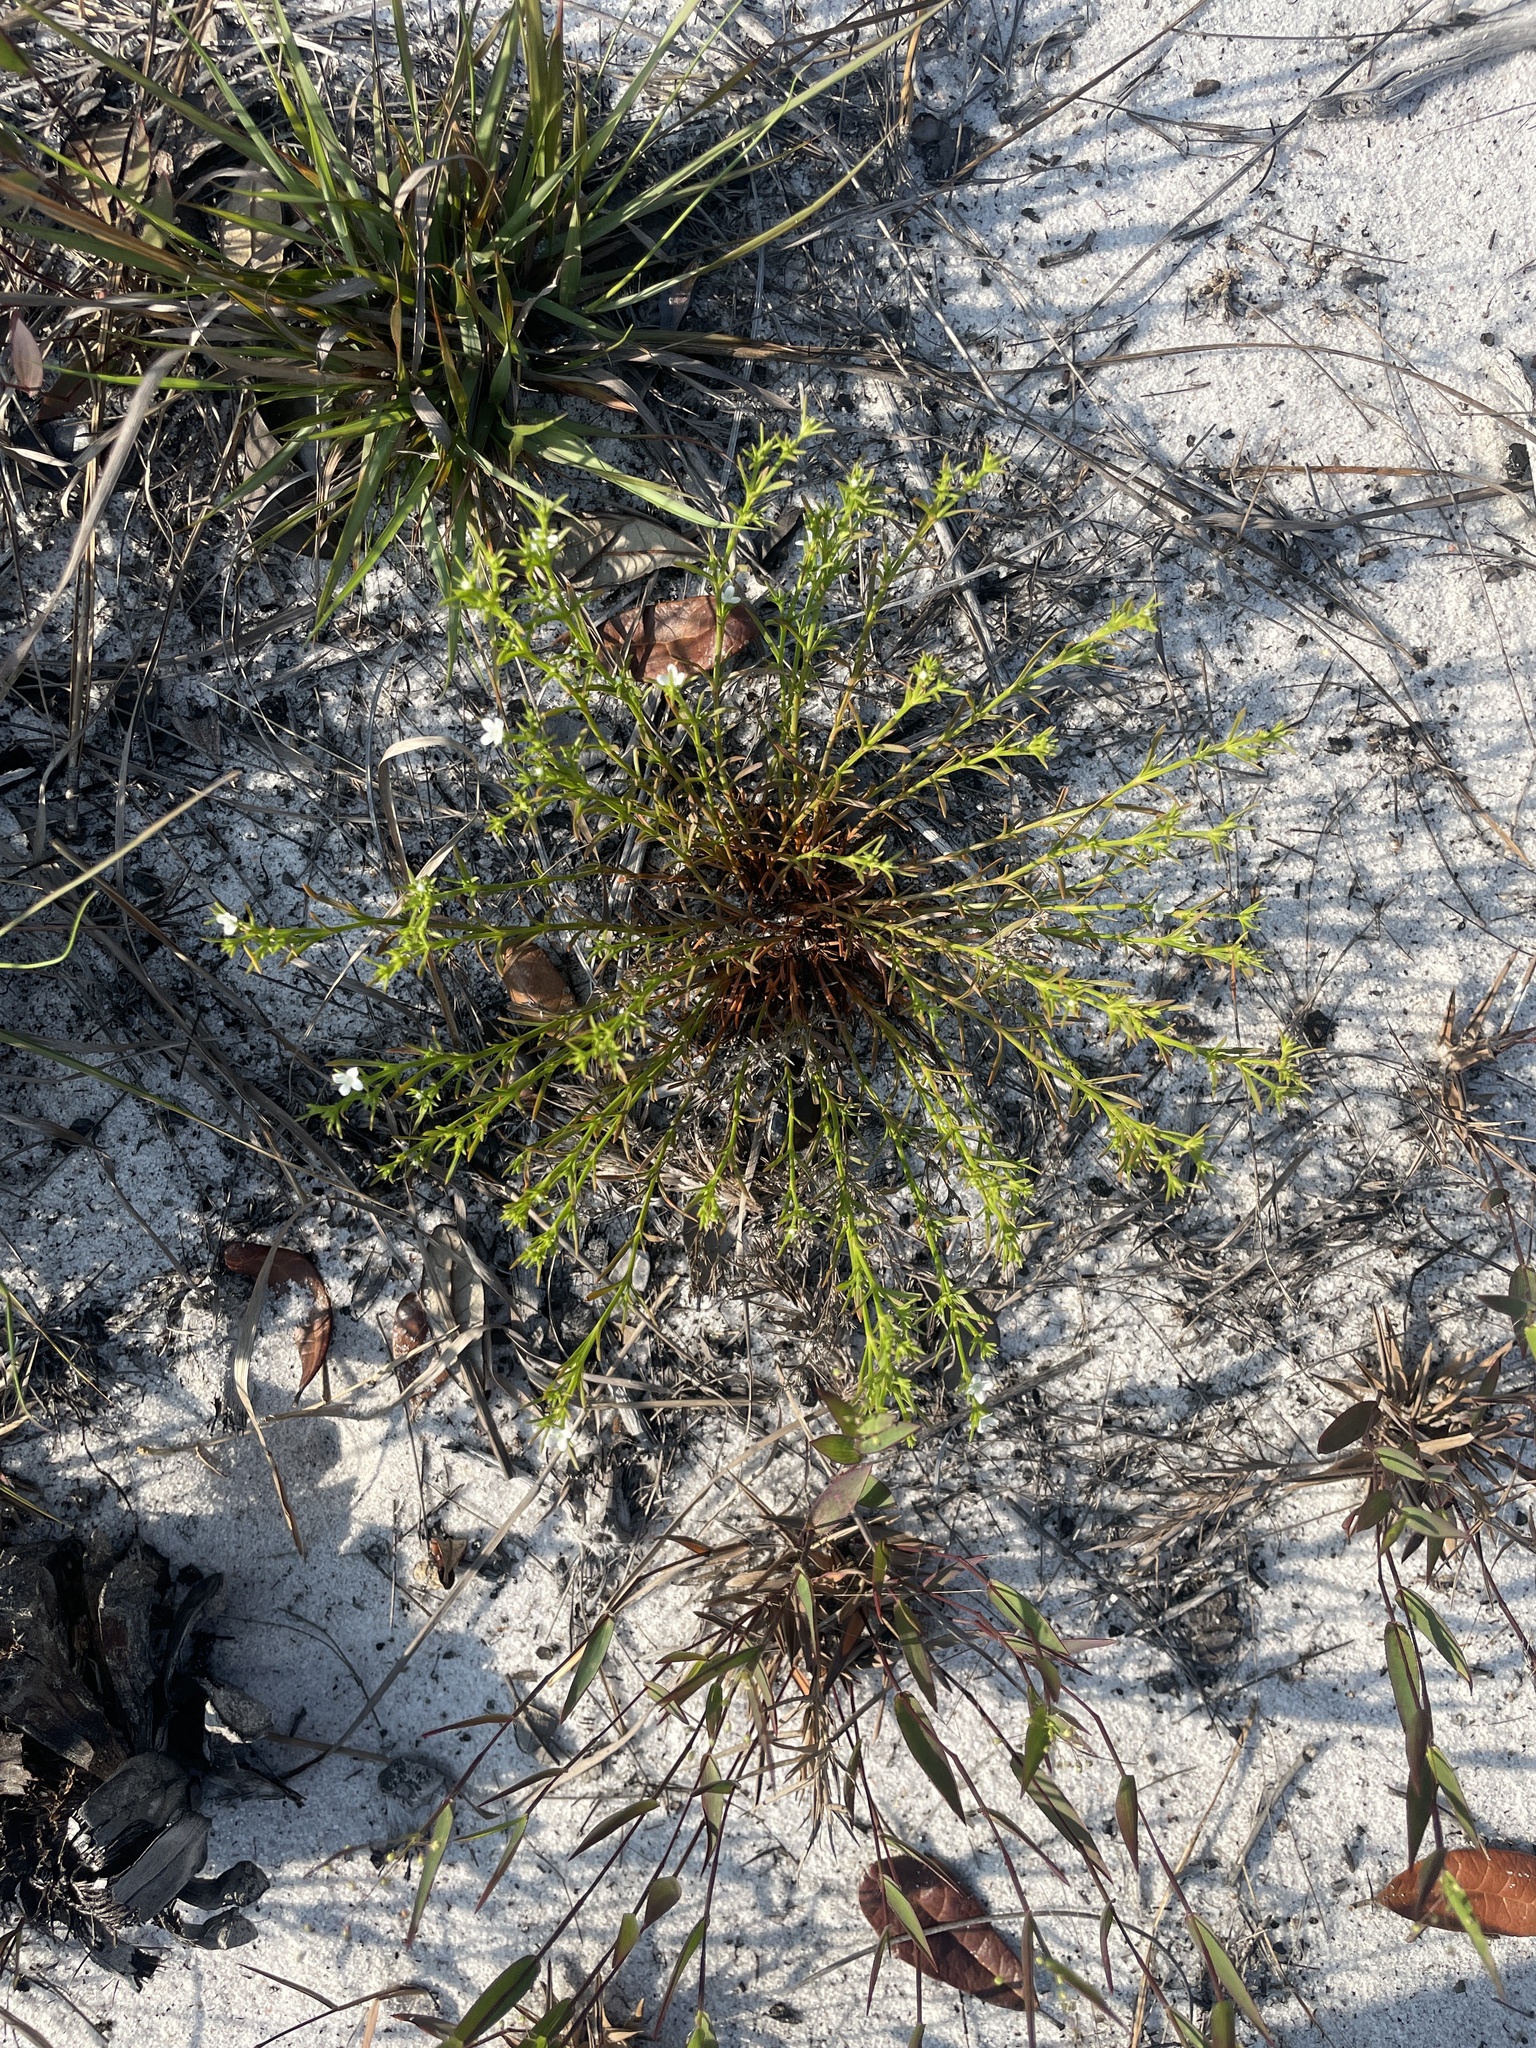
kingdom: Plantae
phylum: Tracheophyta
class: Magnoliopsida
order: Lamiales
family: Tetrachondraceae
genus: Polypremum
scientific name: Polypremum procumbens
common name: Juniper-leaf
